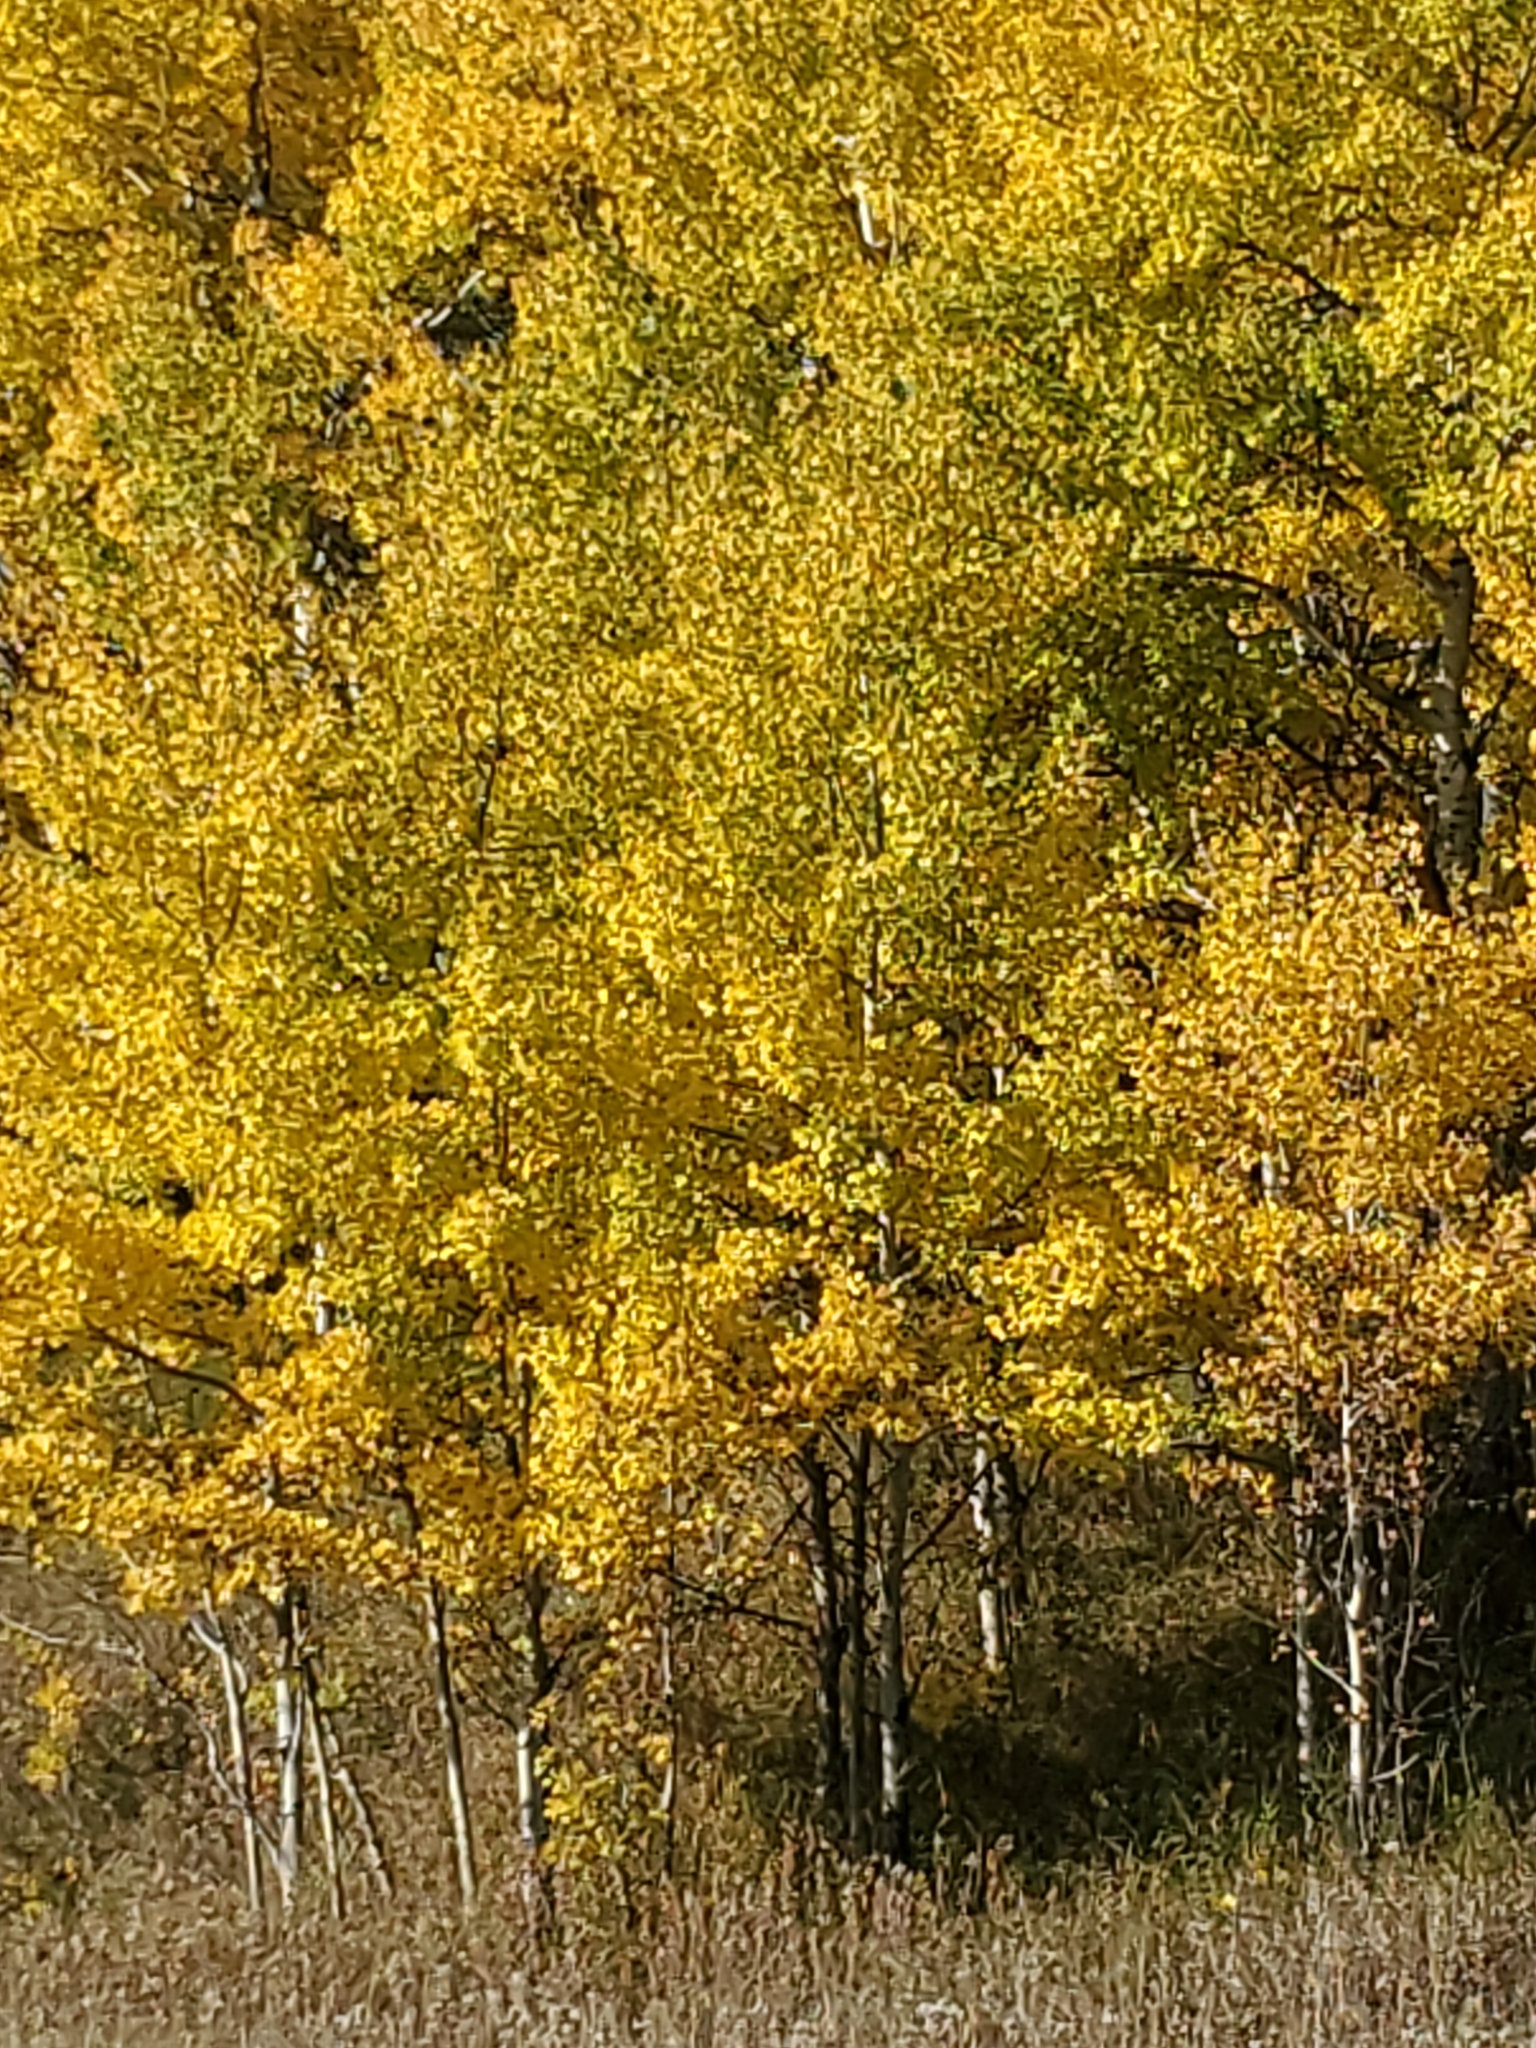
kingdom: Plantae
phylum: Tracheophyta
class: Magnoliopsida
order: Malpighiales
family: Salicaceae
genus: Populus
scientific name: Populus tremuloides
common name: Quaking aspen
